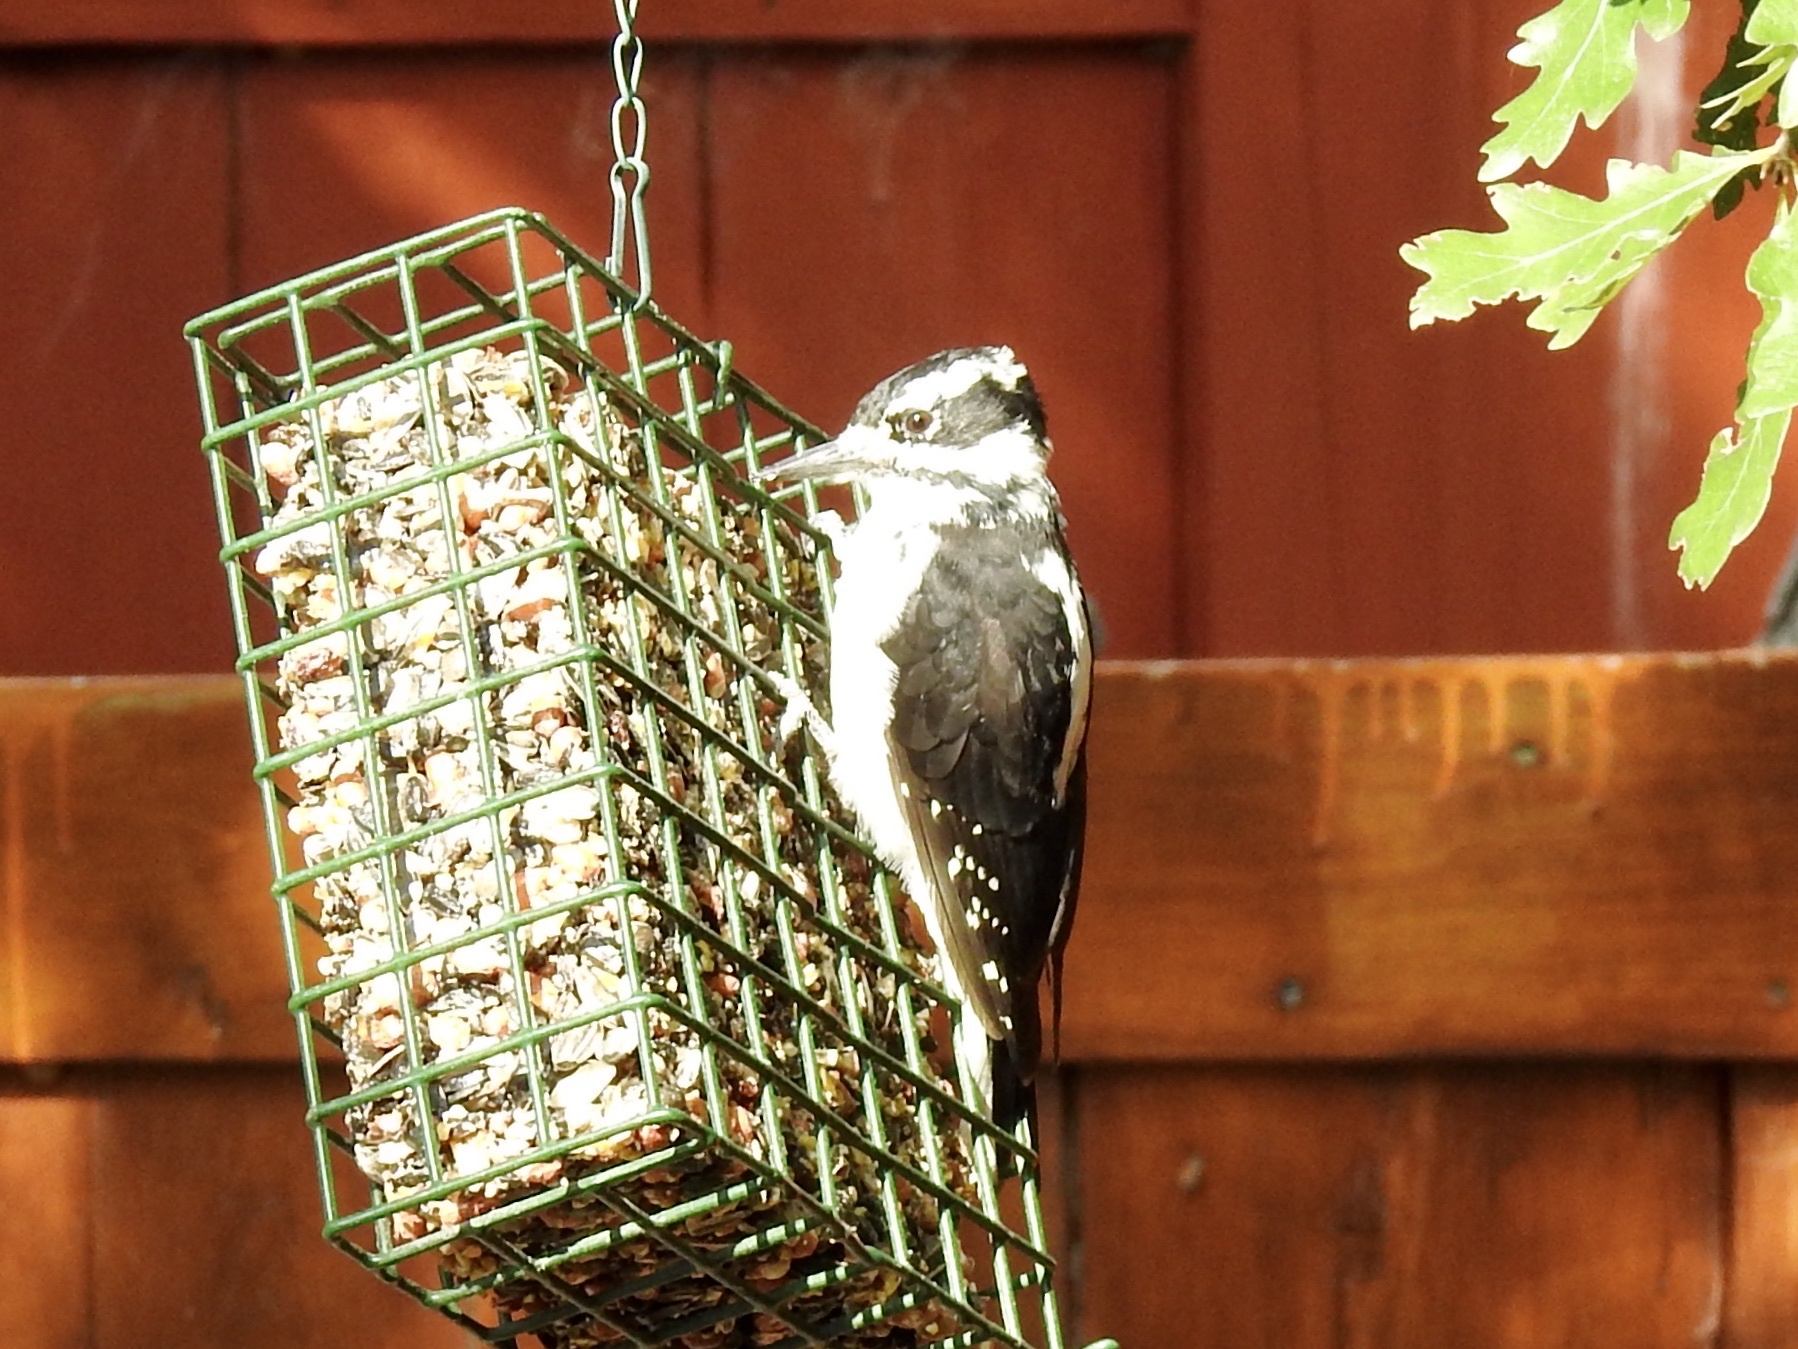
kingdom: Animalia
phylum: Chordata
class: Aves
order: Piciformes
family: Picidae
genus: Leuconotopicus
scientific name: Leuconotopicus villosus
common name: Hairy woodpecker
